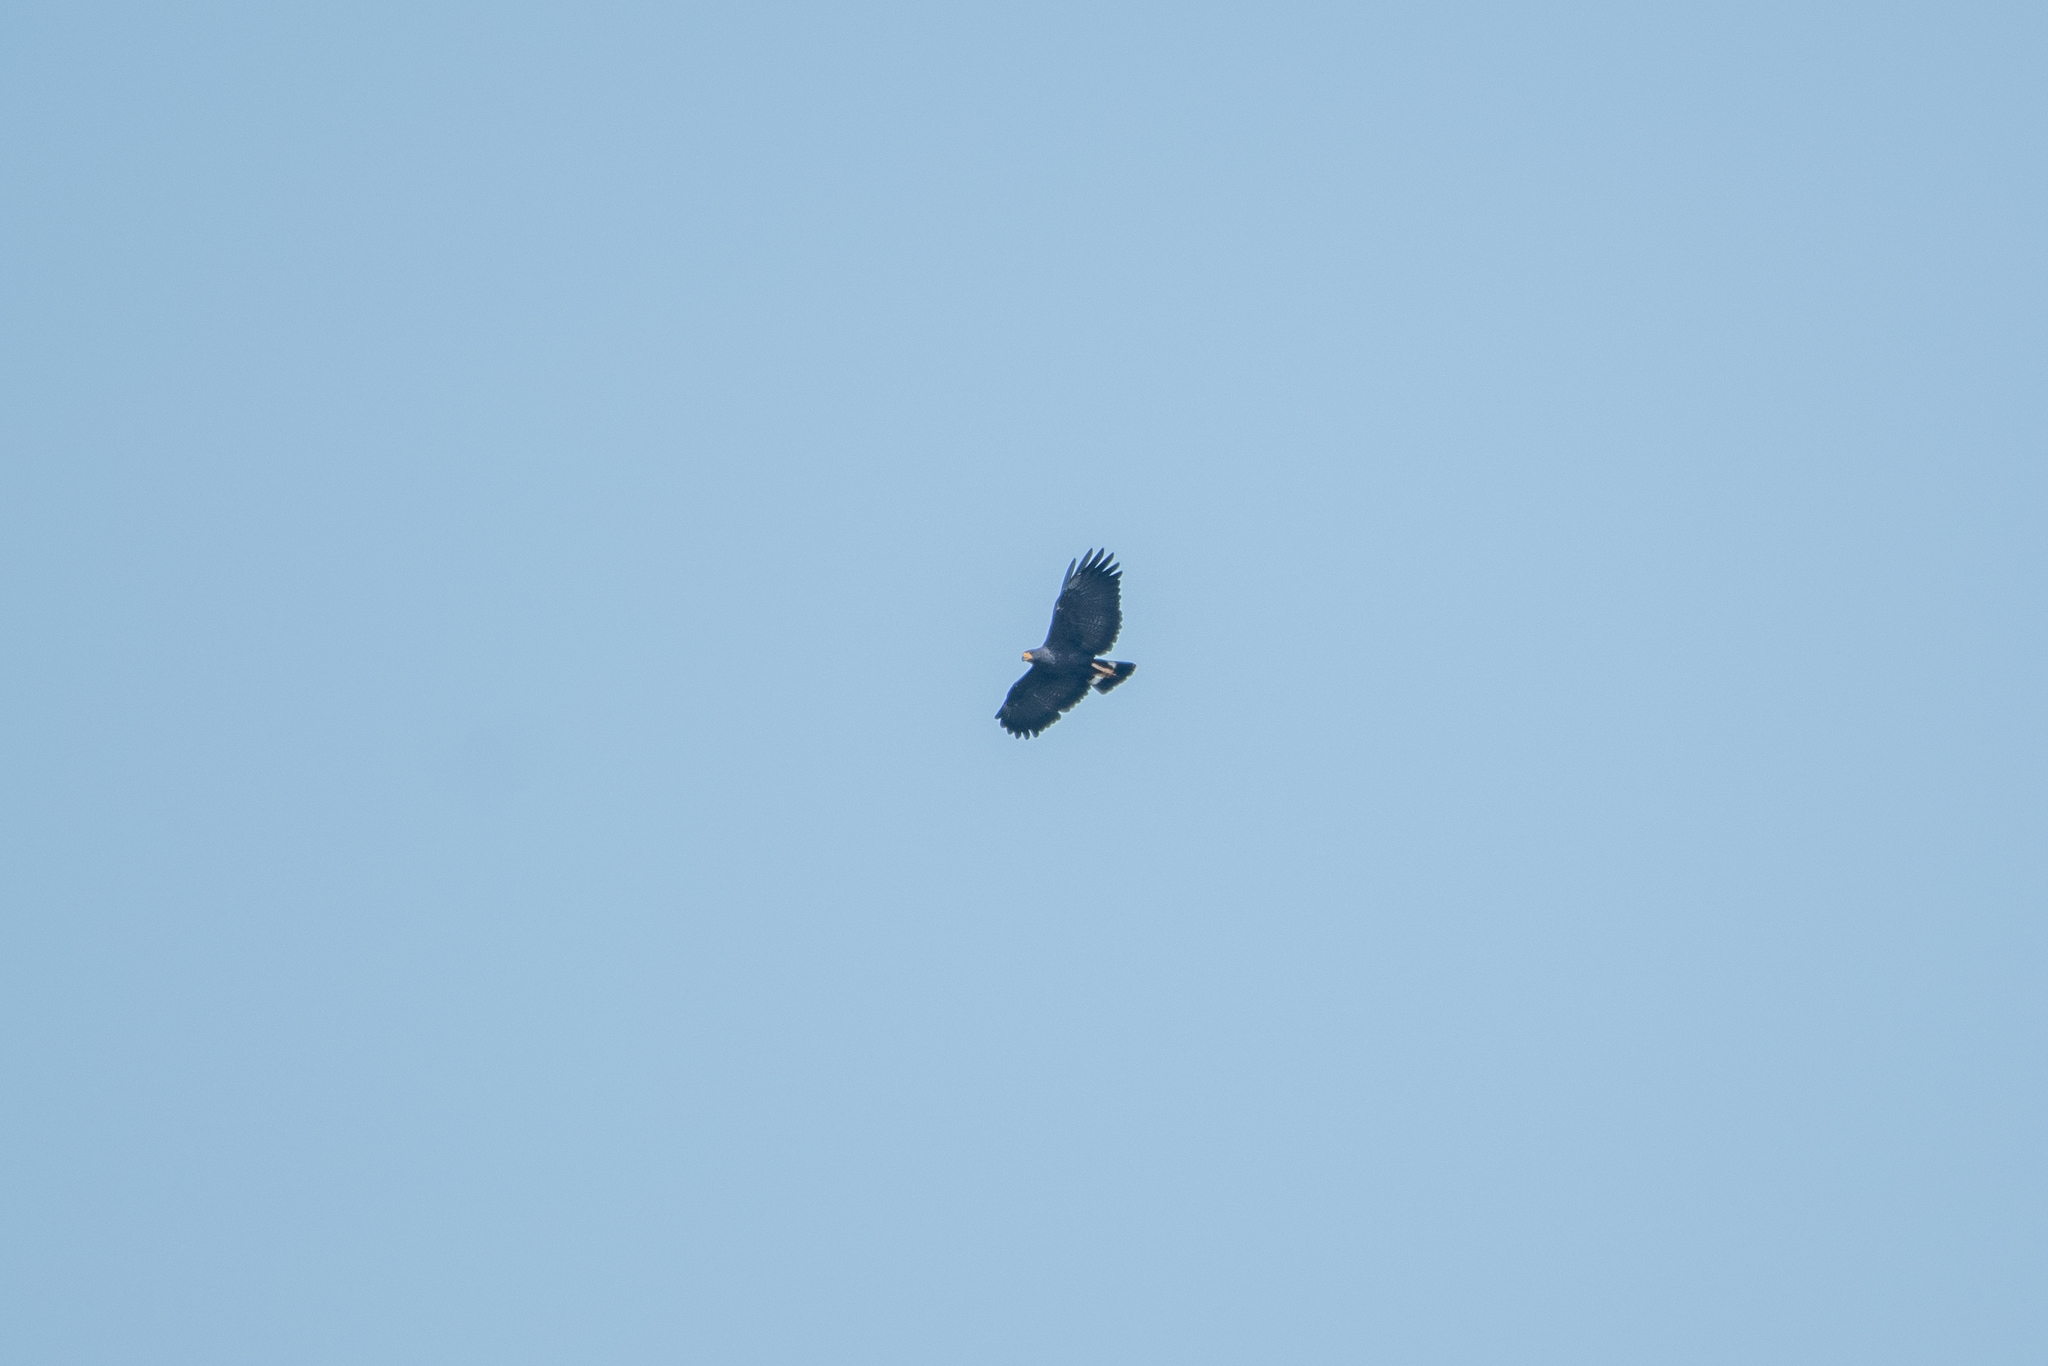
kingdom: Animalia
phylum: Chordata
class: Aves
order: Accipitriformes
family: Accipitridae
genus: Buteogallus
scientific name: Buteogallus anthracinus
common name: Common black hawk
